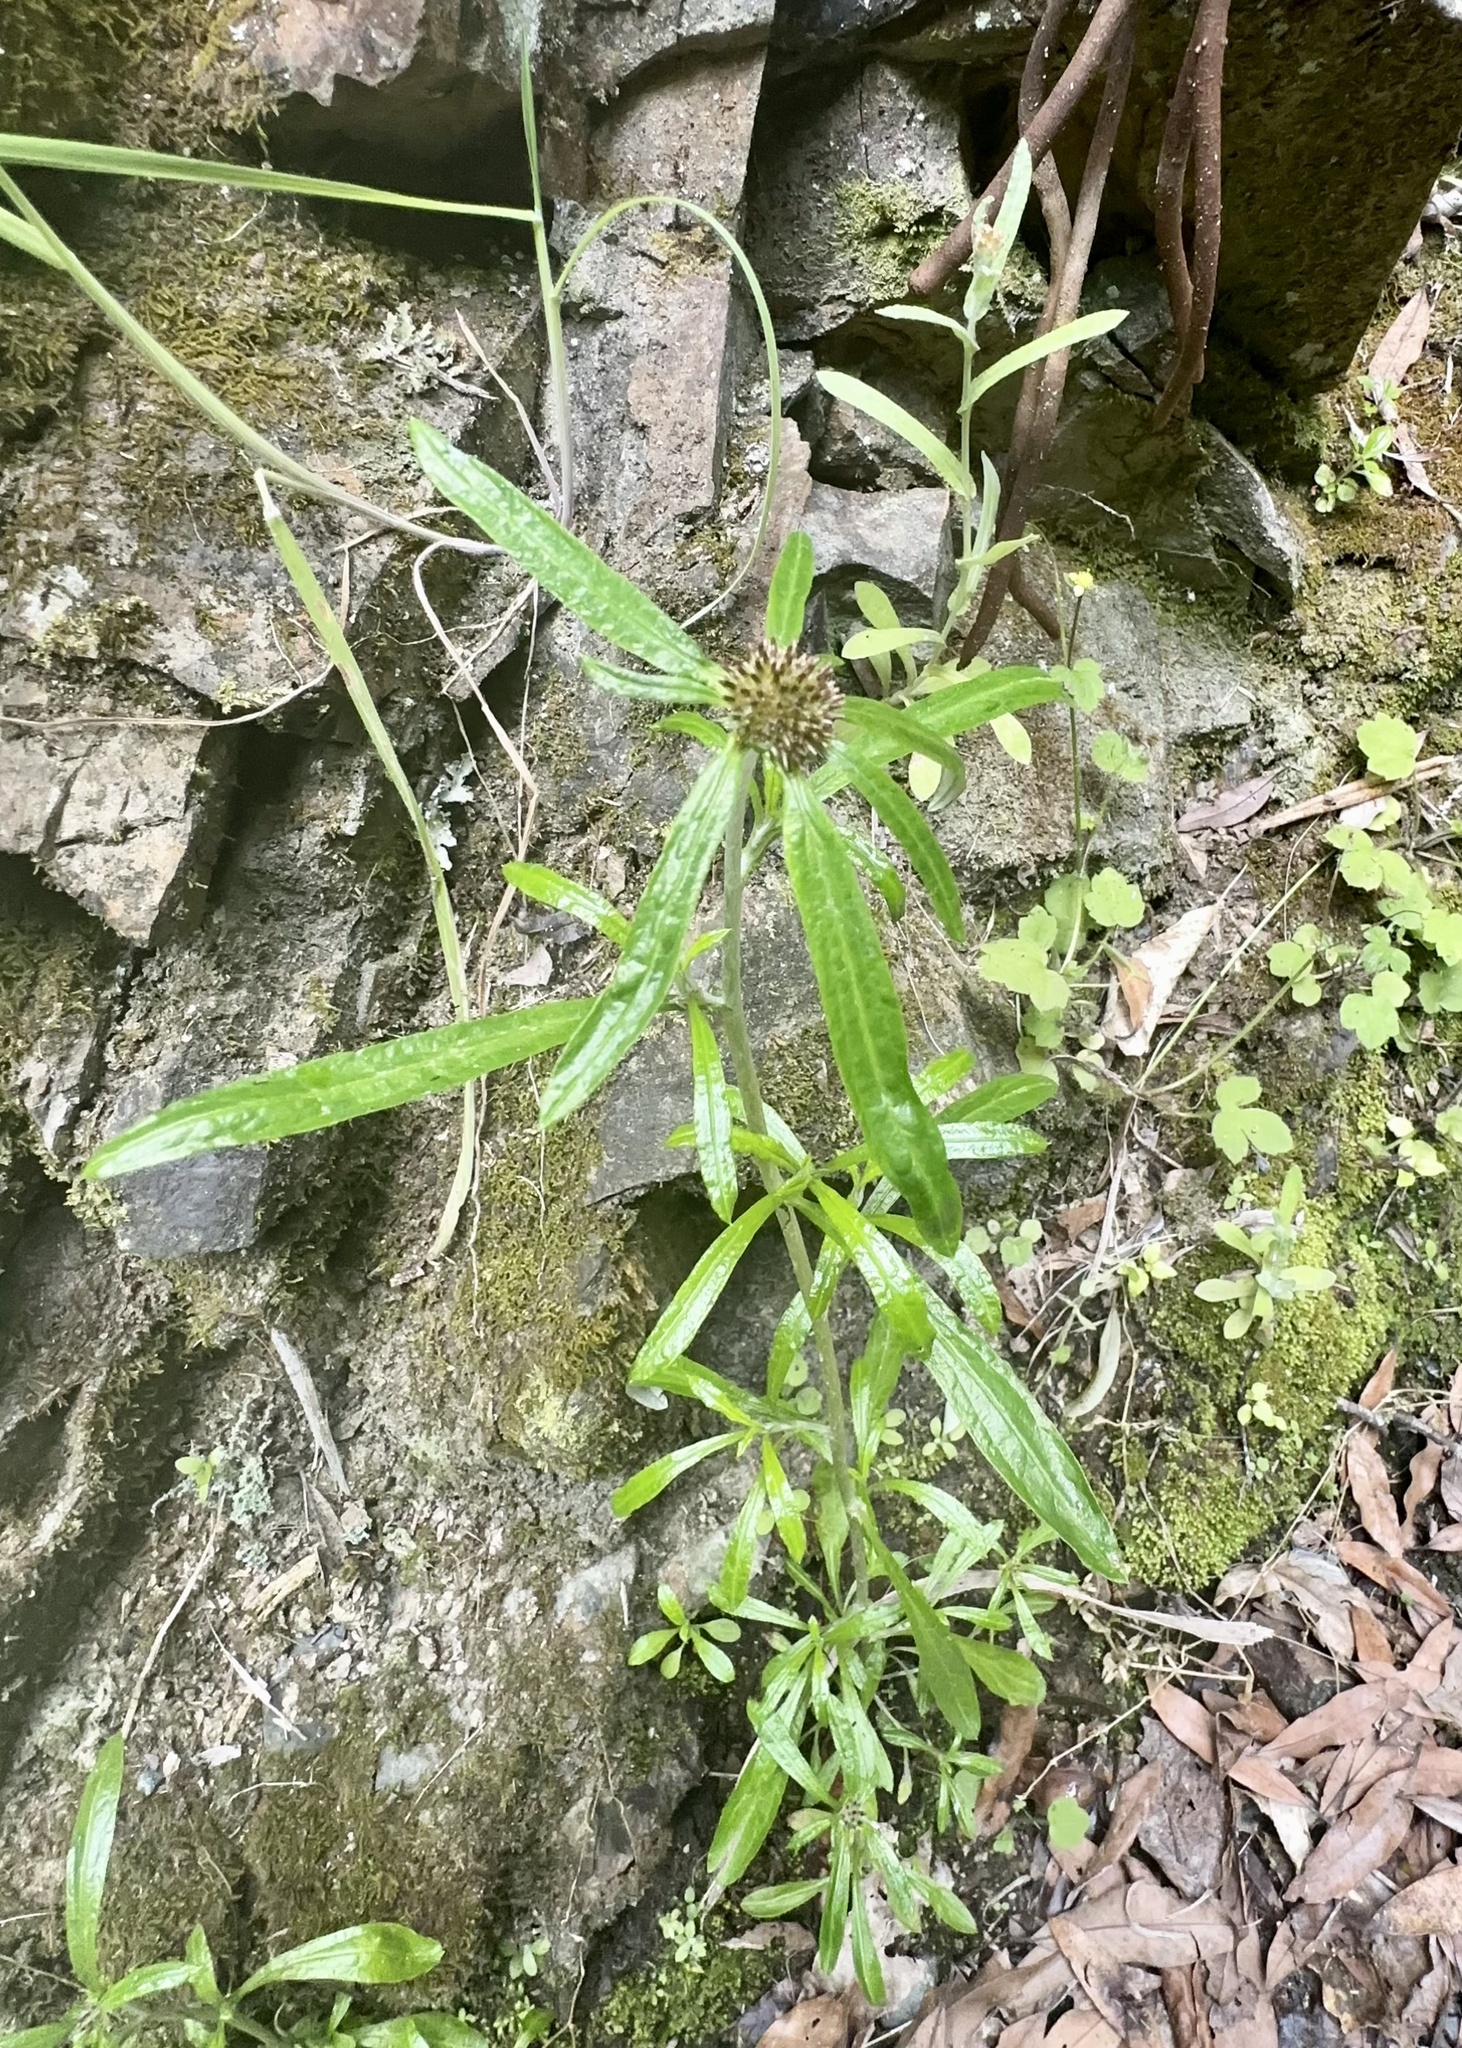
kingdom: Plantae
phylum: Tracheophyta
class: Magnoliopsida
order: Asterales
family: Asteraceae
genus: Euchiton
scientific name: Euchiton sphaericus
